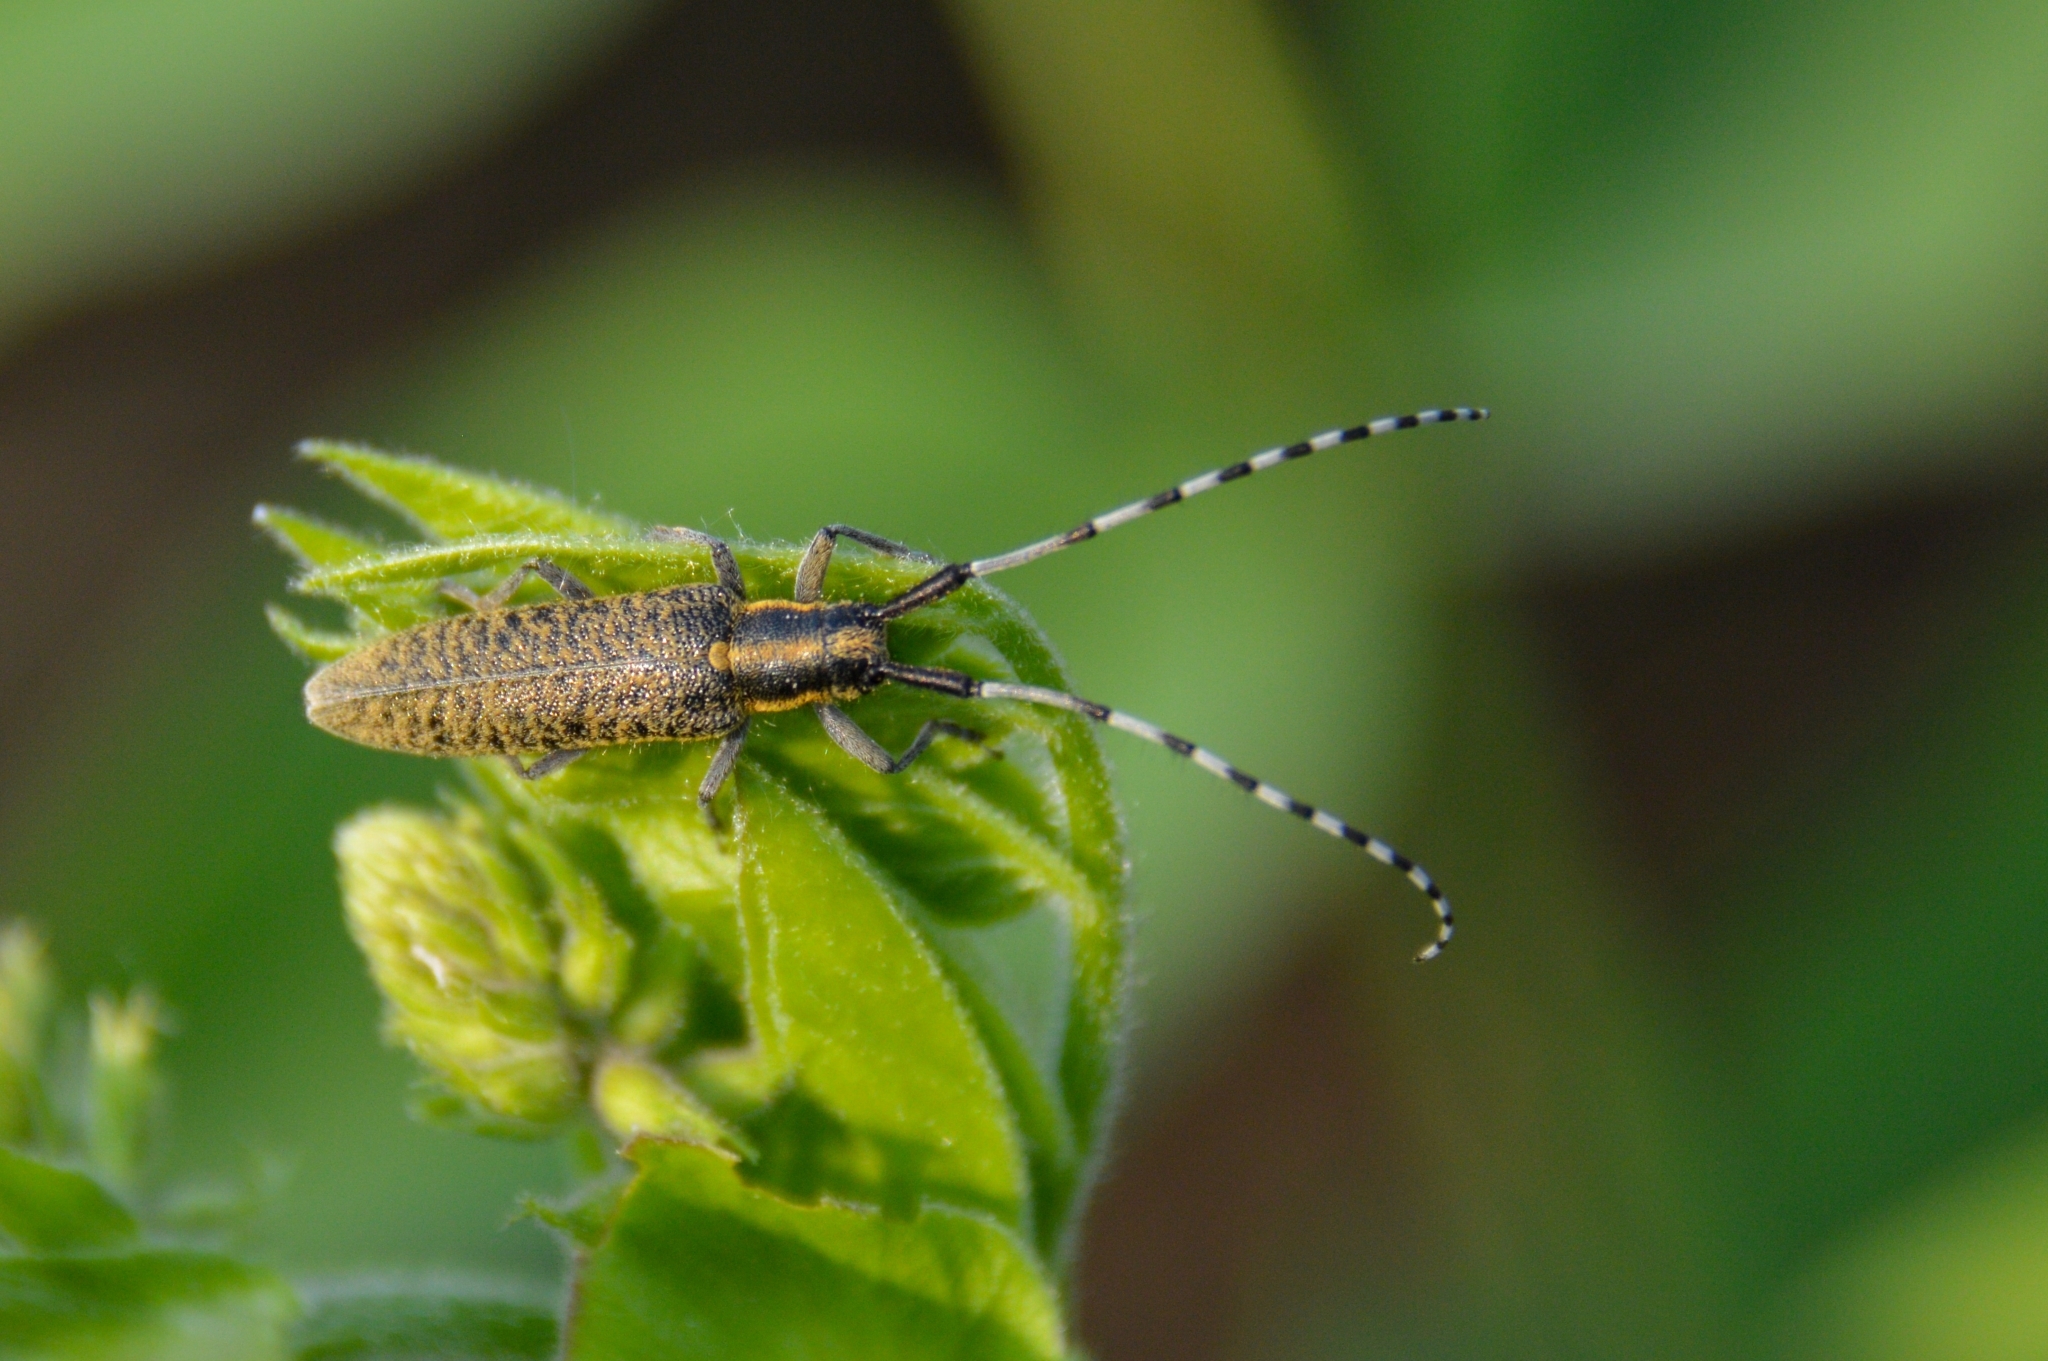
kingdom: Animalia
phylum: Arthropoda
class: Insecta
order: Coleoptera
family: Cerambycidae
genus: Agapanthia
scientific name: Agapanthia villosoviridescens
